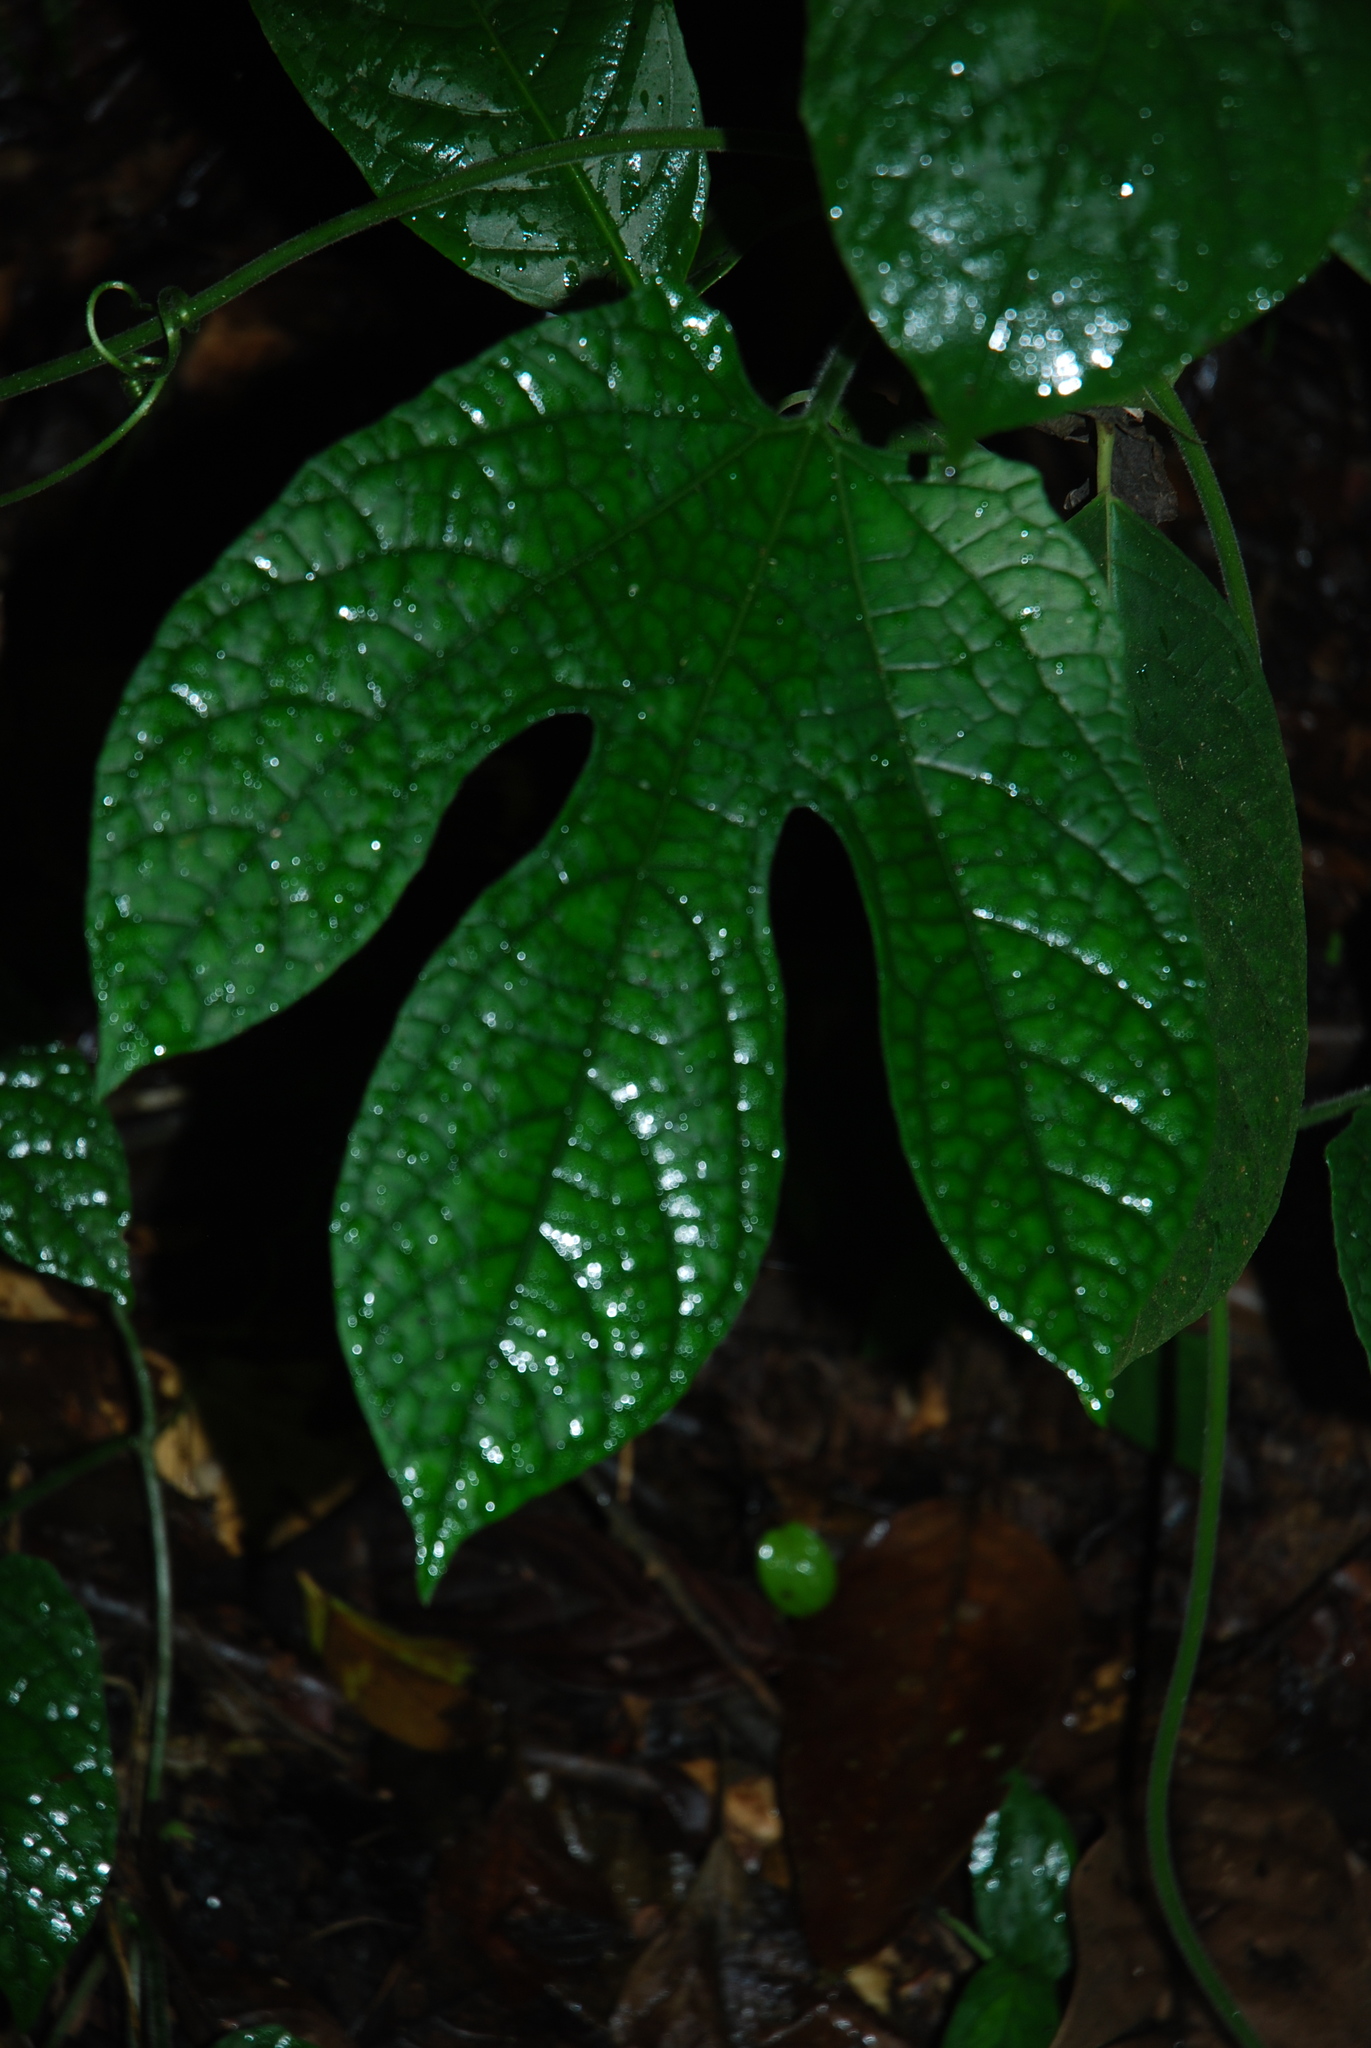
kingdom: Plantae
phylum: Tracheophyta
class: Magnoliopsida
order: Cucurbitales
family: Cucurbitaceae
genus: Gurania
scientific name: Gurania makoyana
